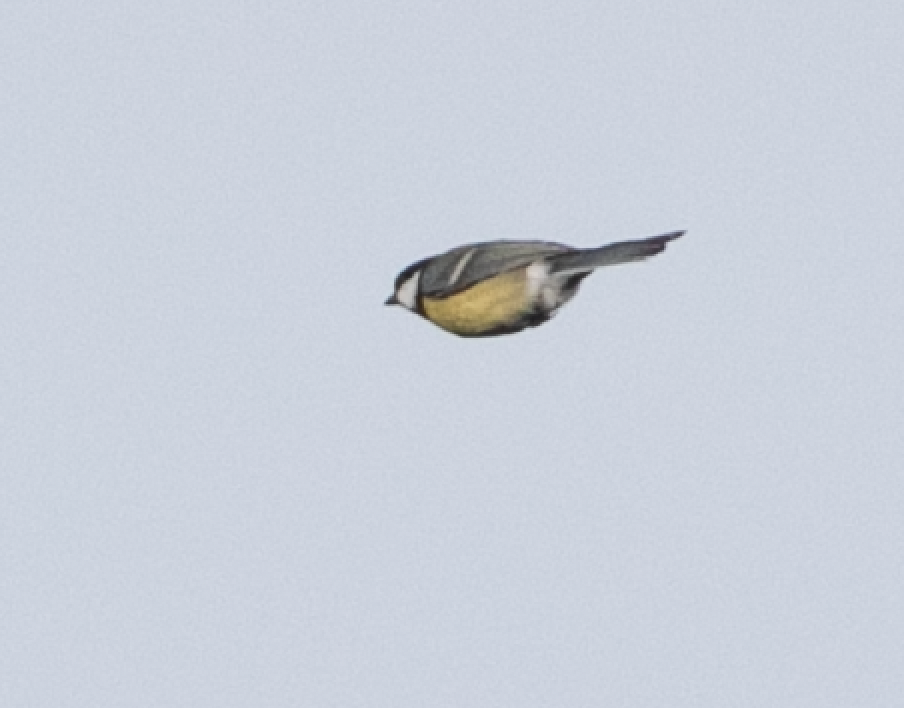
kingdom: Animalia
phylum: Chordata
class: Aves
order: Passeriformes
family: Paridae
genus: Parus
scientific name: Parus major
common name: Great tit
